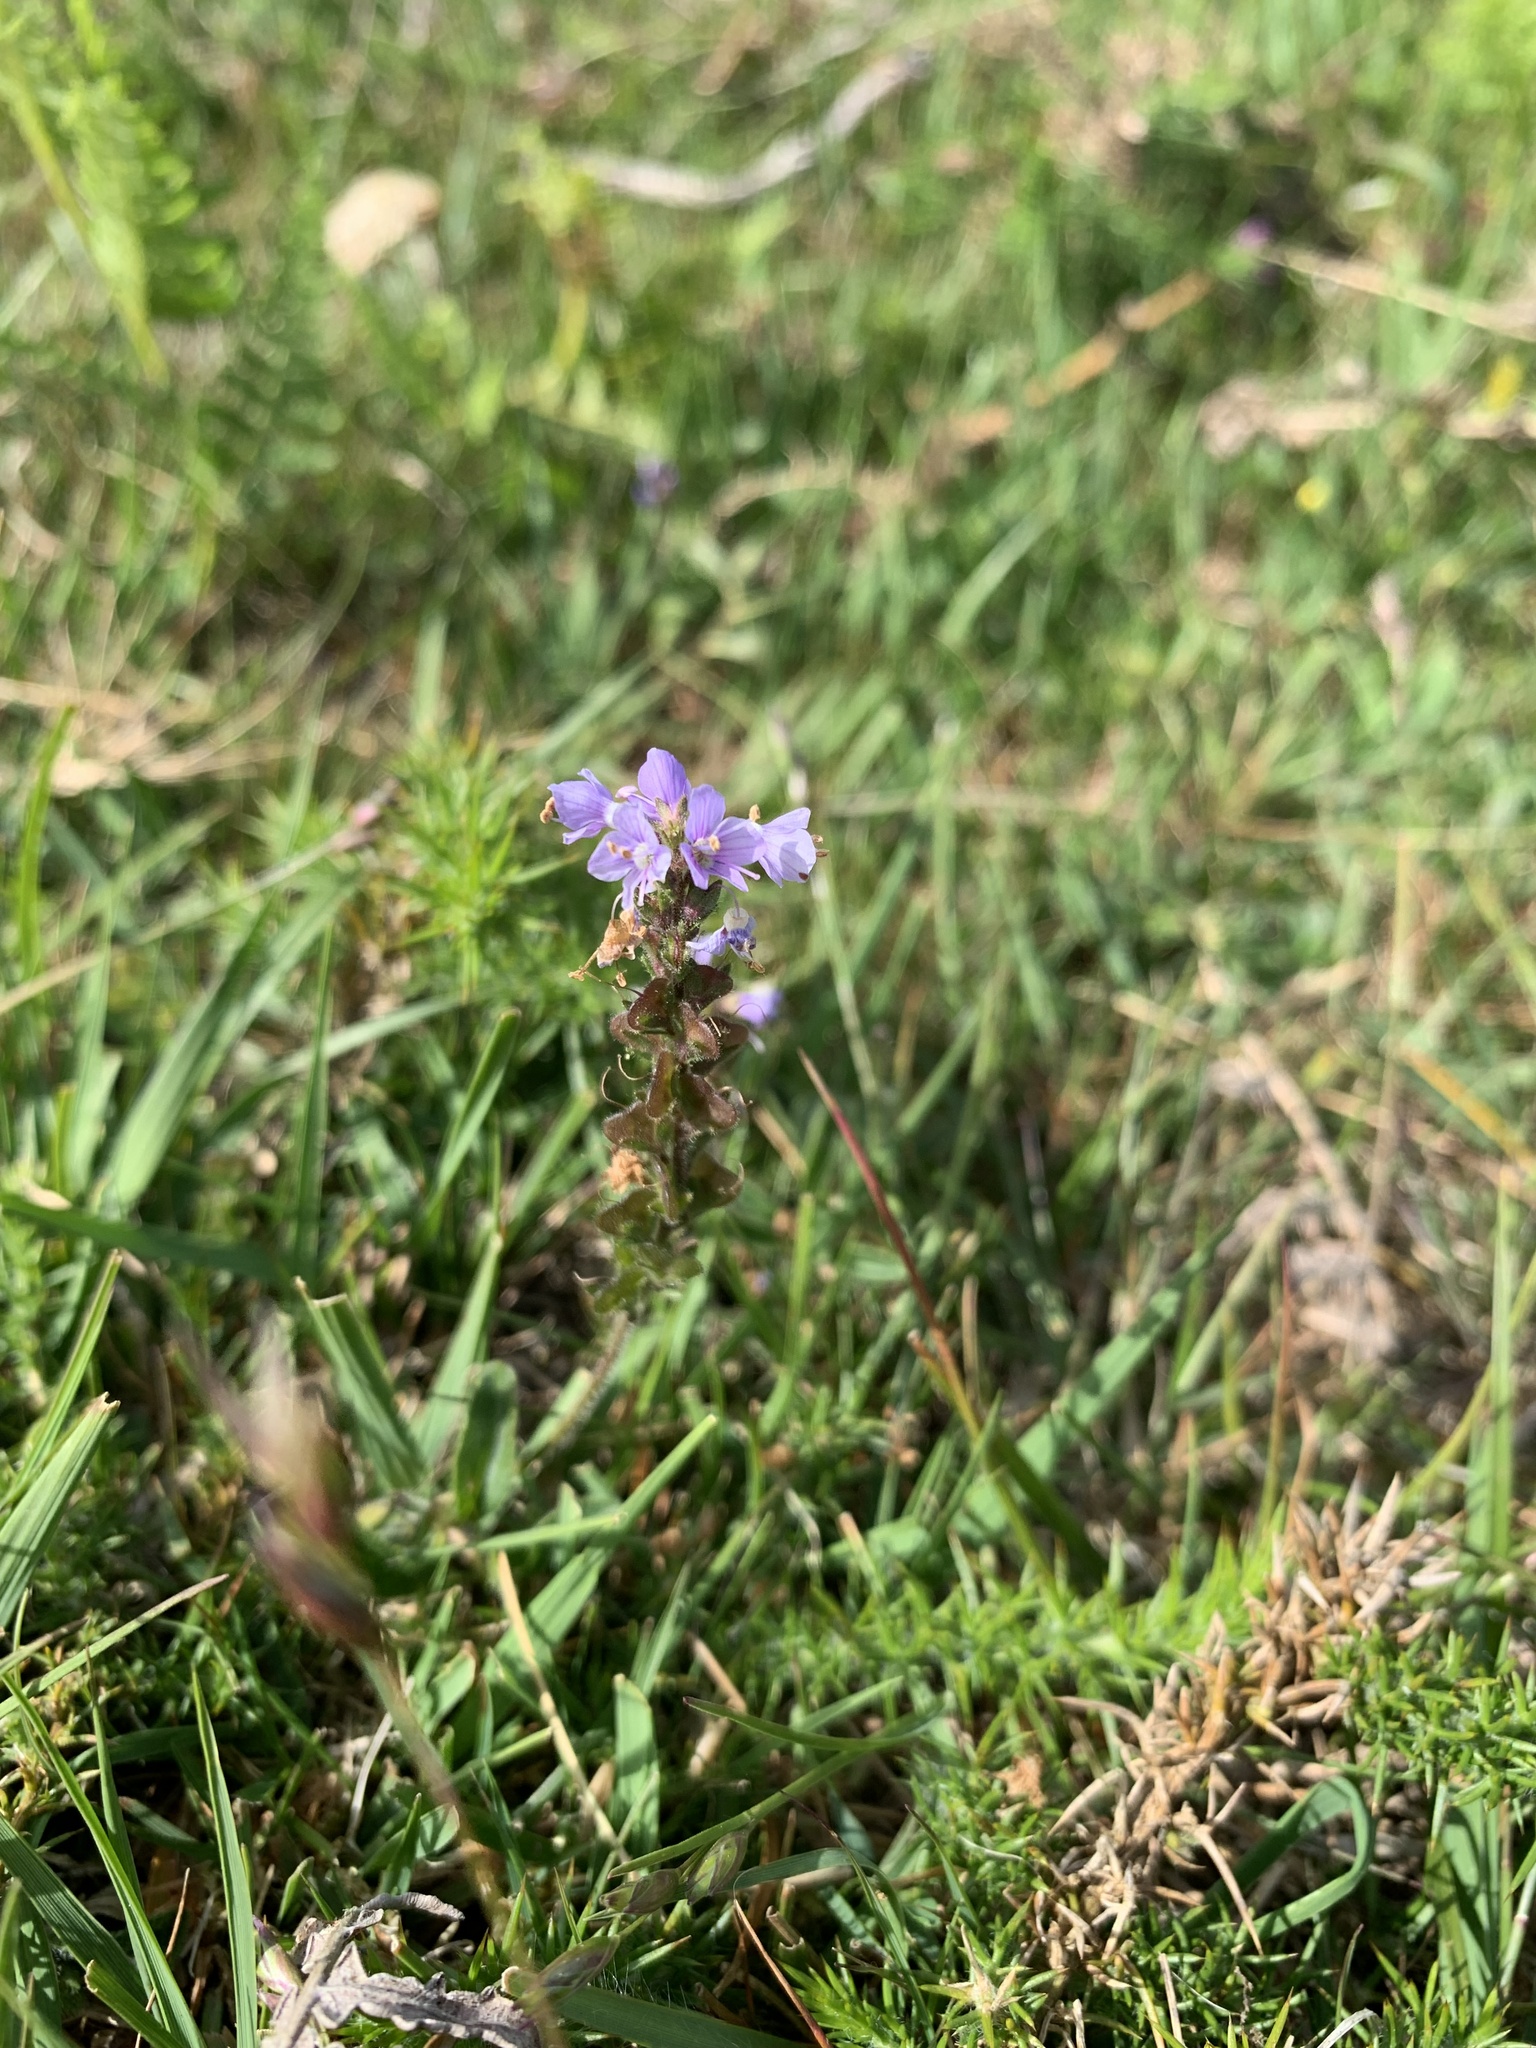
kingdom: Plantae
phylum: Tracheophyta
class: Magnoliopsida
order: Lamiales
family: Plantaginaceae
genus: Veronica
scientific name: Veronica officinalis
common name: Common speedwell
